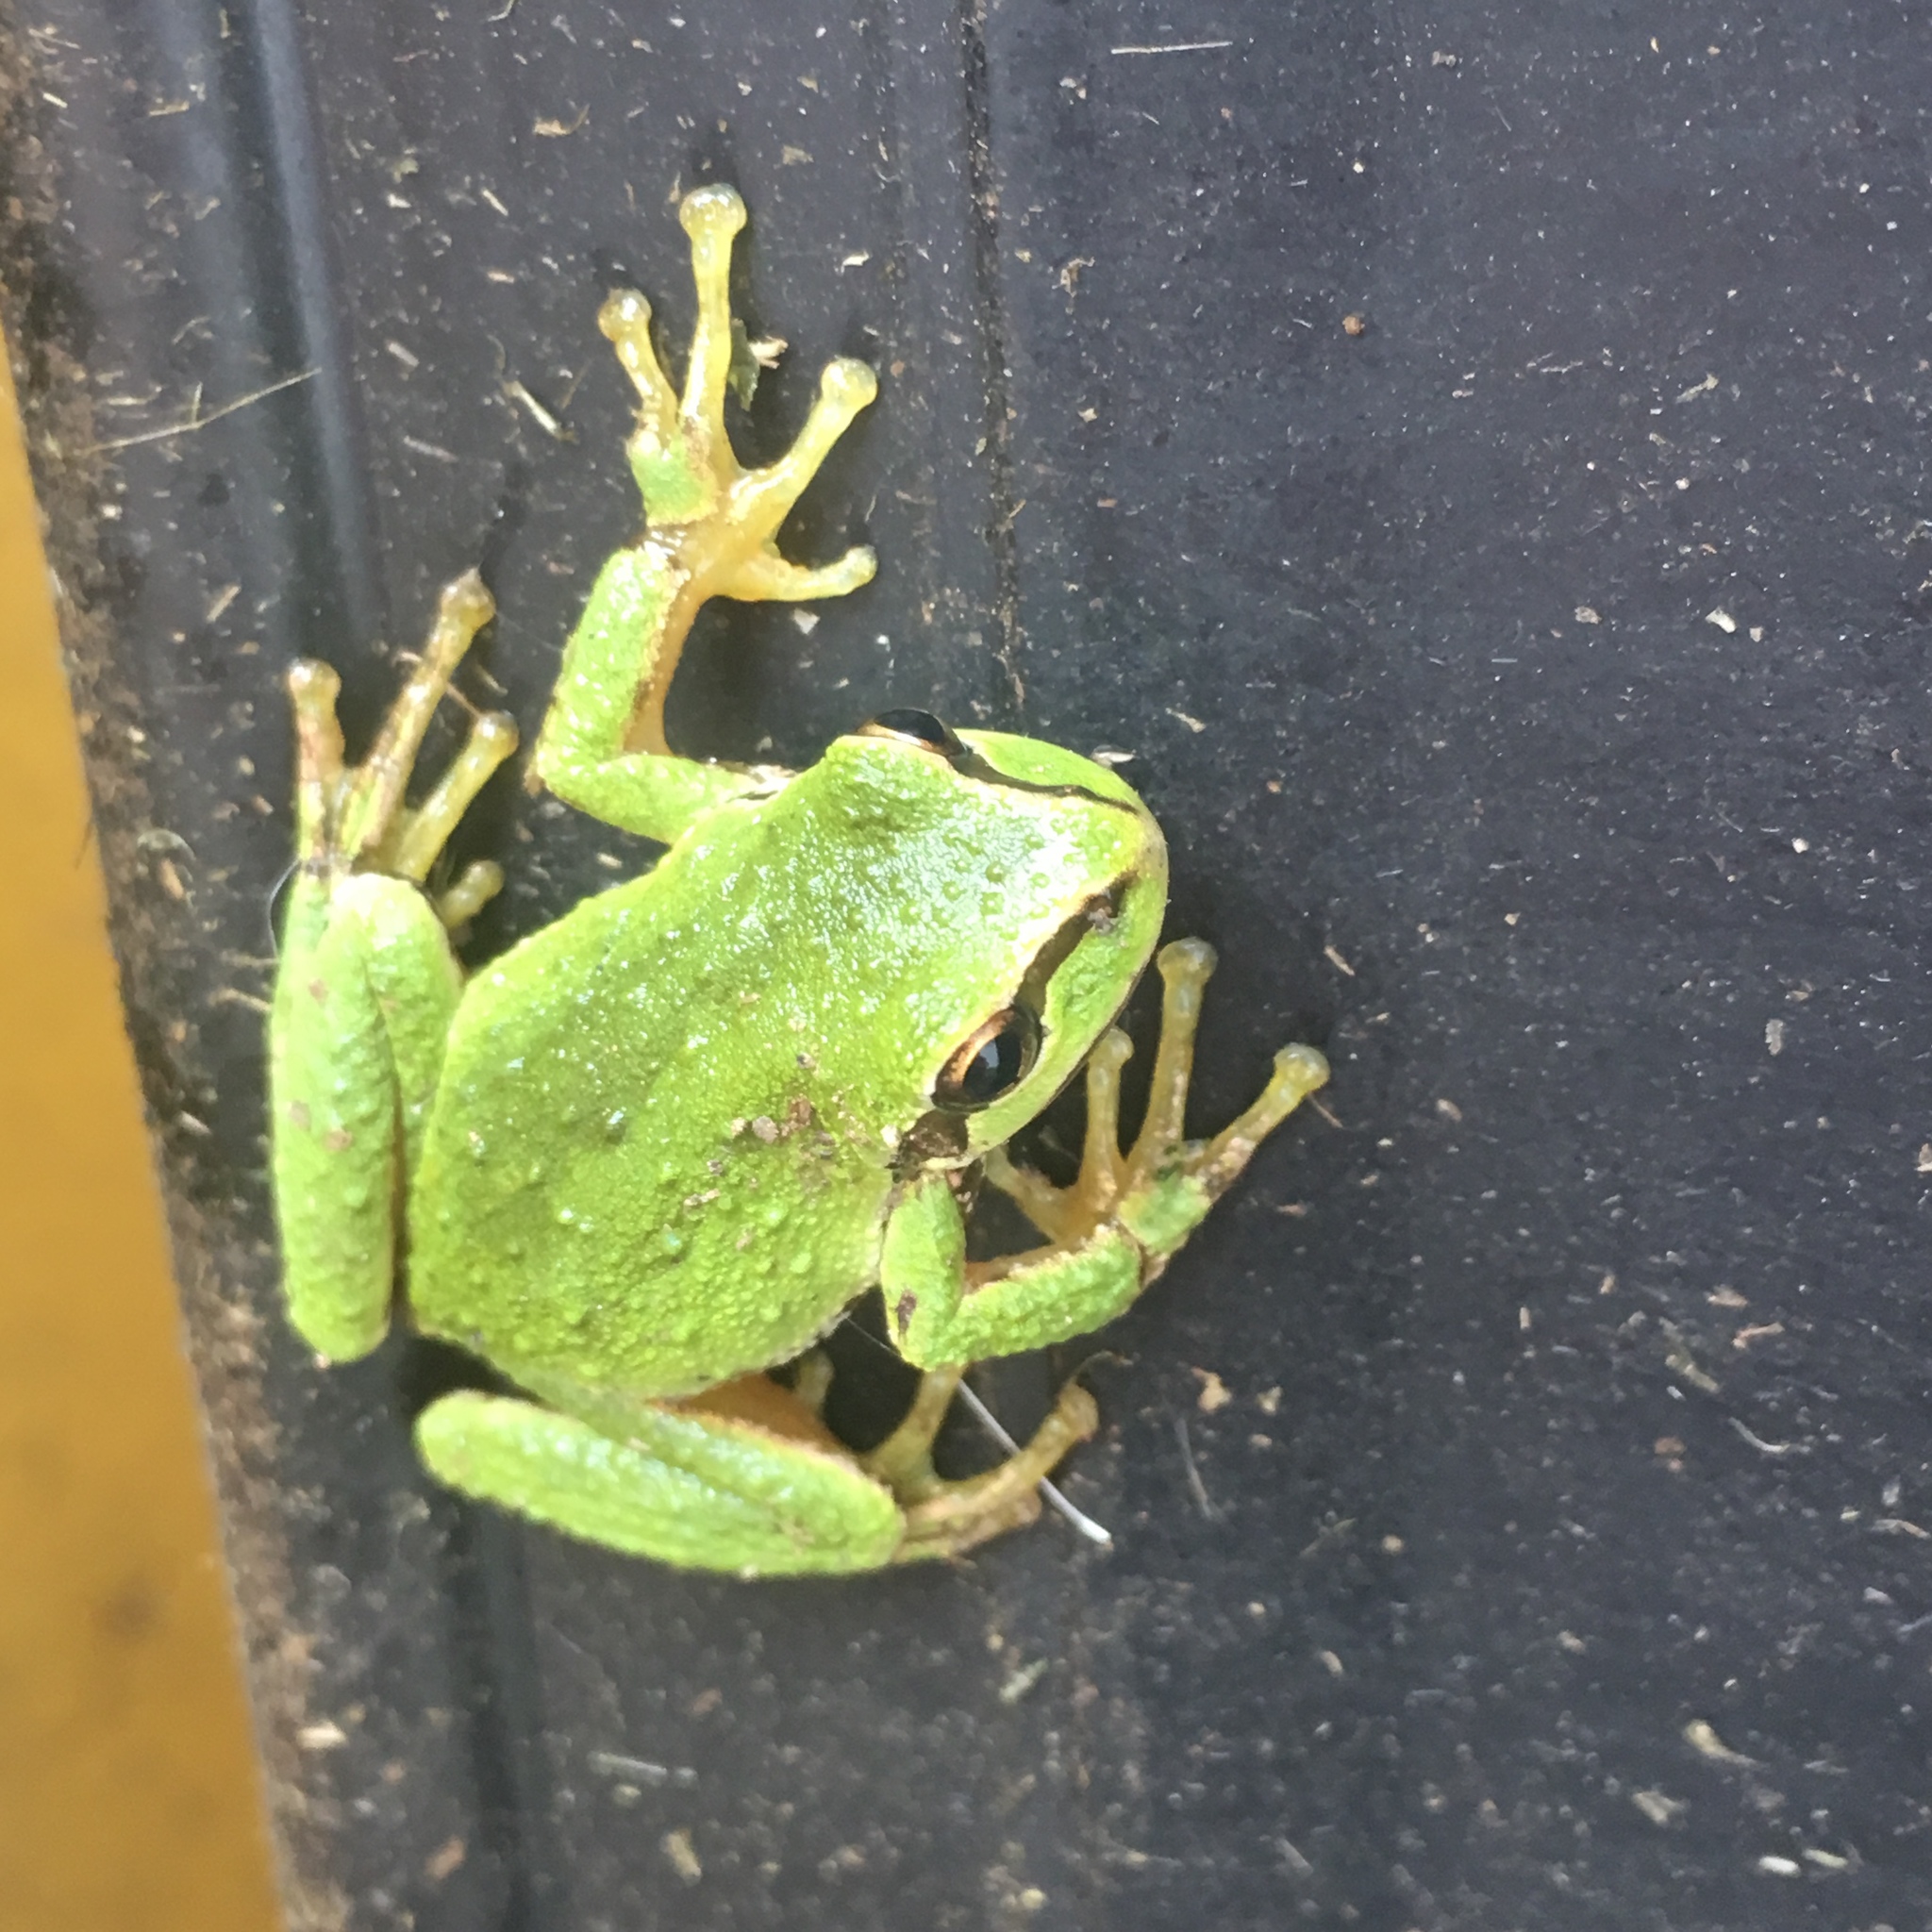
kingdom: Animalia
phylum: Chordata
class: Amphibia
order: Anura
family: Hylidae
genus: Pseudacris
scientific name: Pseudacris regilla
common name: Pacific chorus frog
